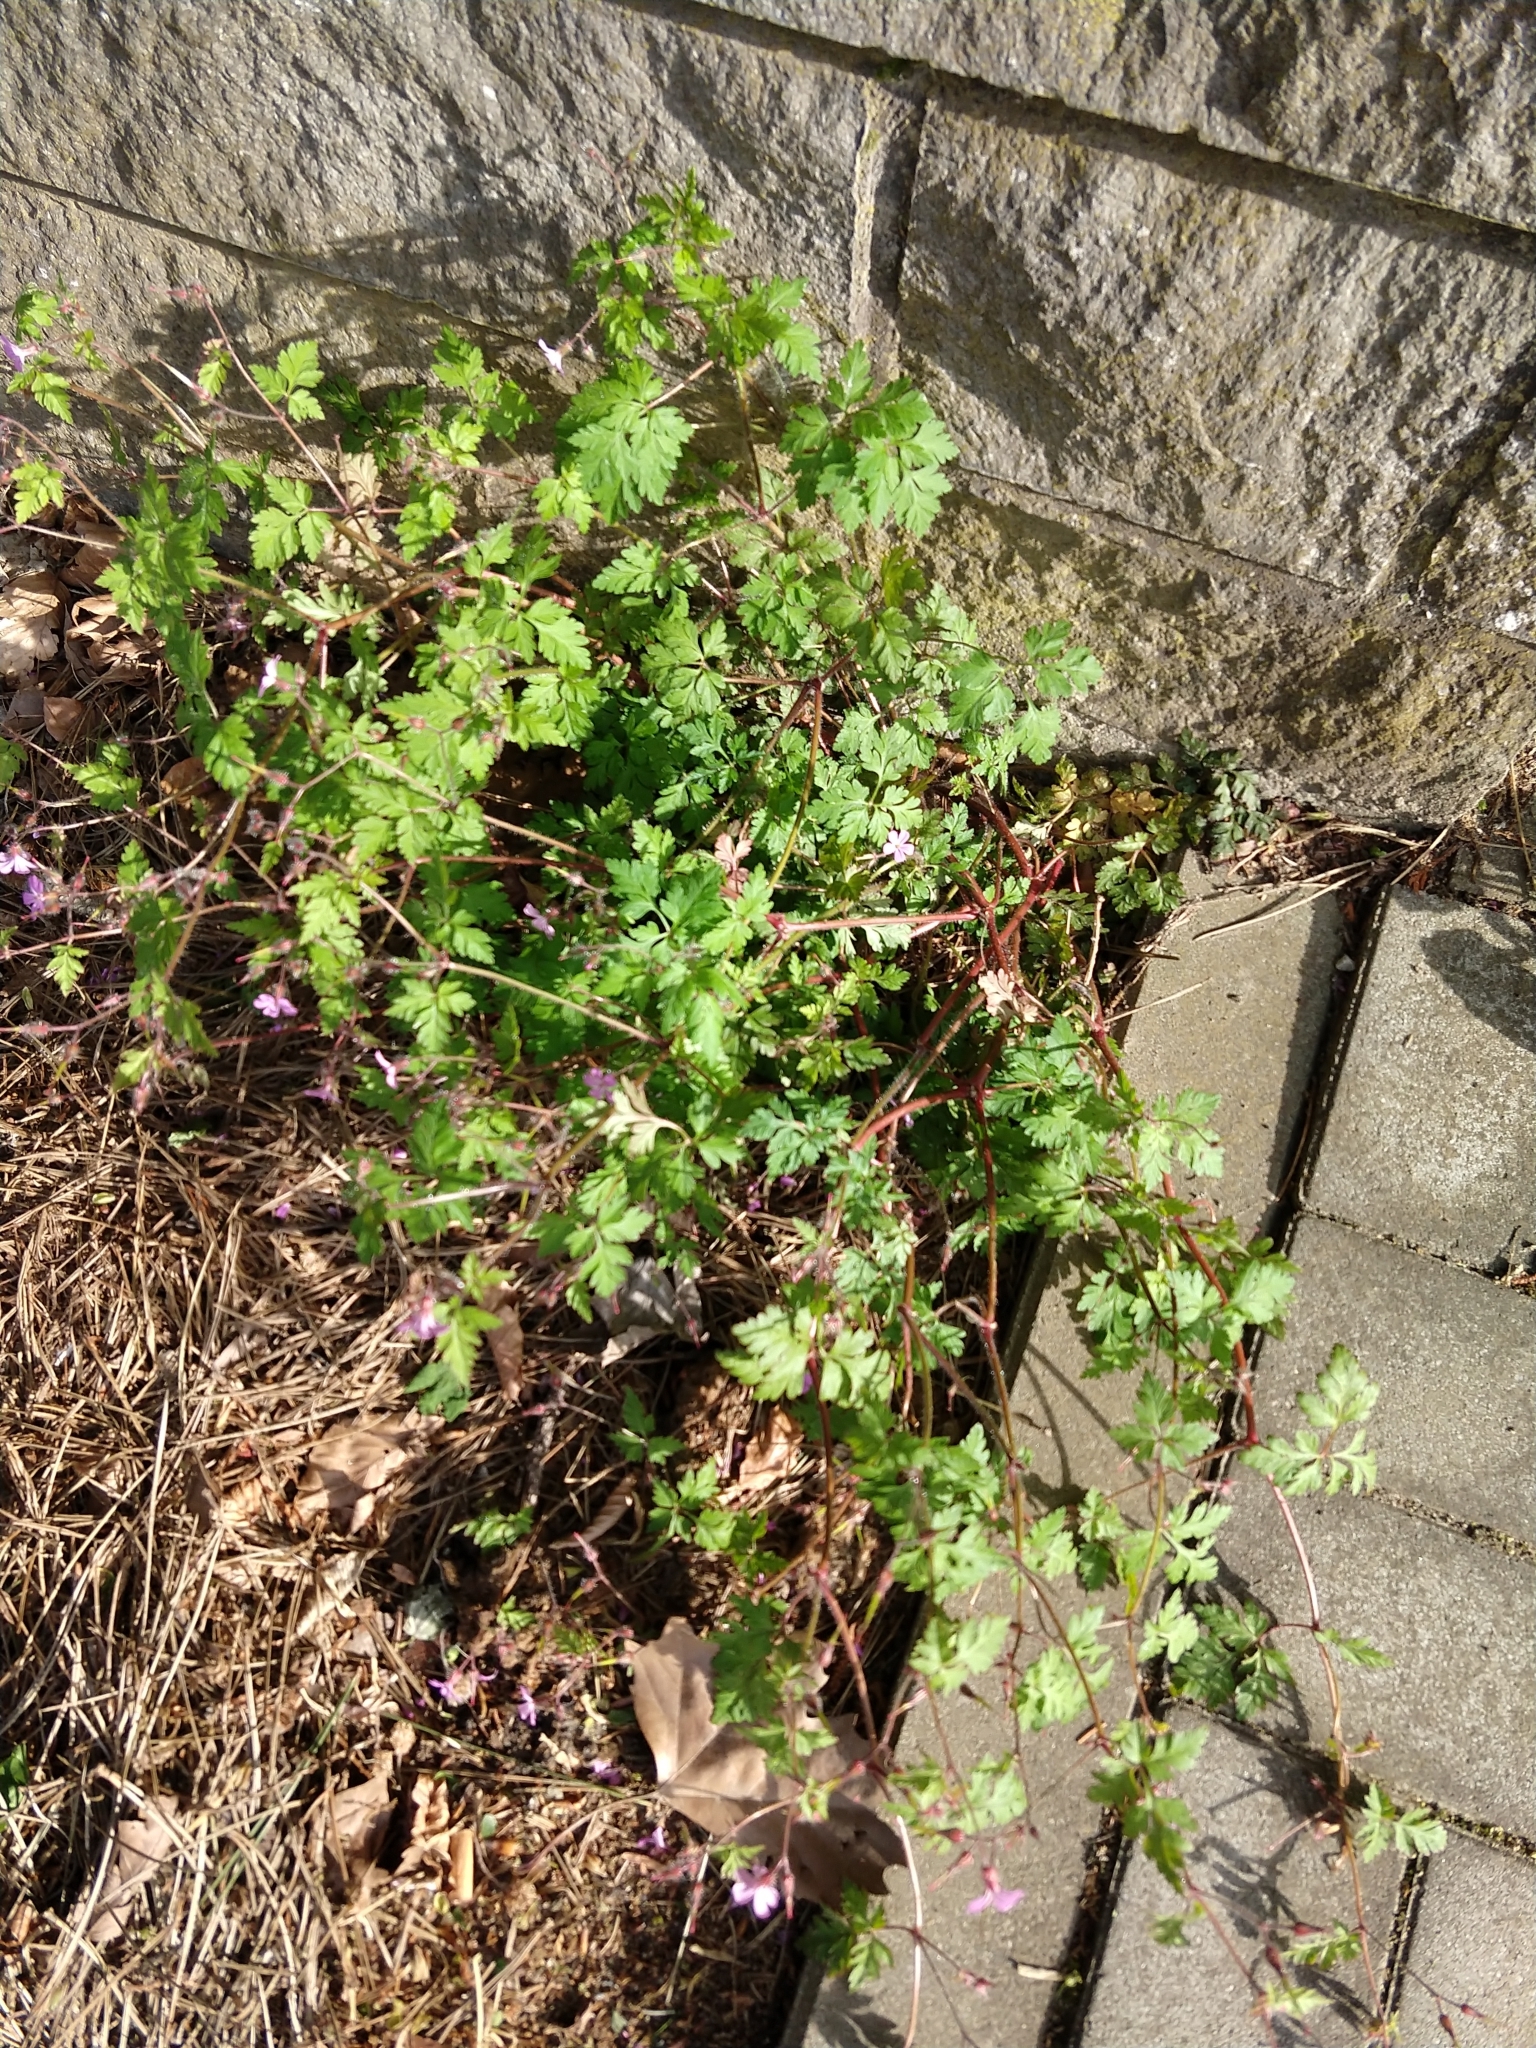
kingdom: Plantae
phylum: Tracheophyta
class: Magnoliopsida
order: Geraniales
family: Geraniaceae
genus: Geranium
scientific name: Geranium robertianum
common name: Herb-robert
